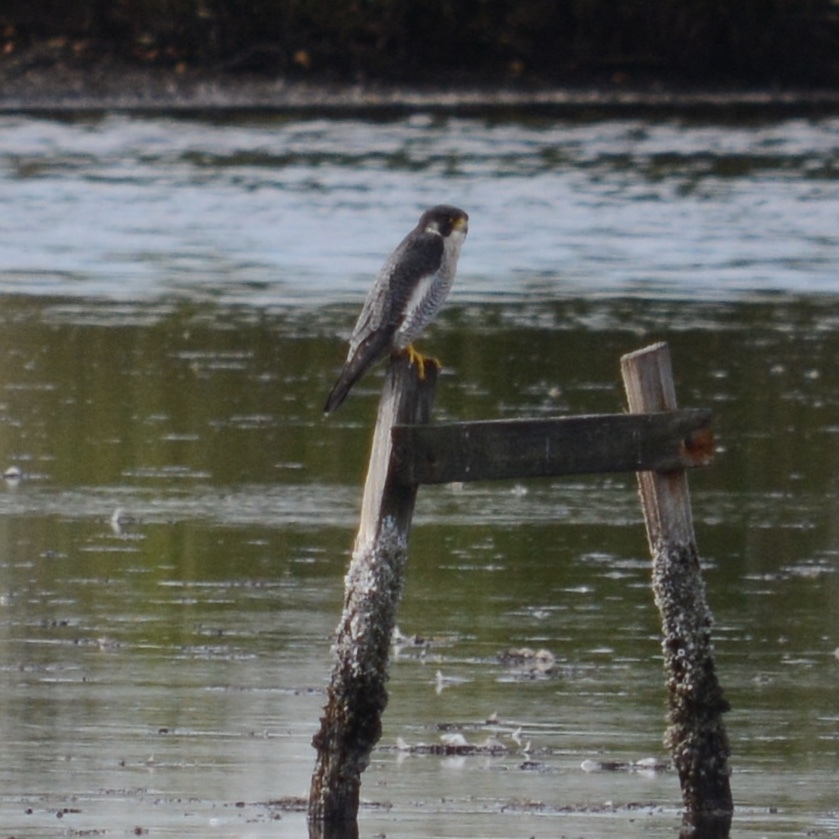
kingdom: Animalia
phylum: Chordata
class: Aves
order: Falconiformes
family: Falconidae
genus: Falco
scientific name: Falco peregrinus
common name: Peregrine falcon
